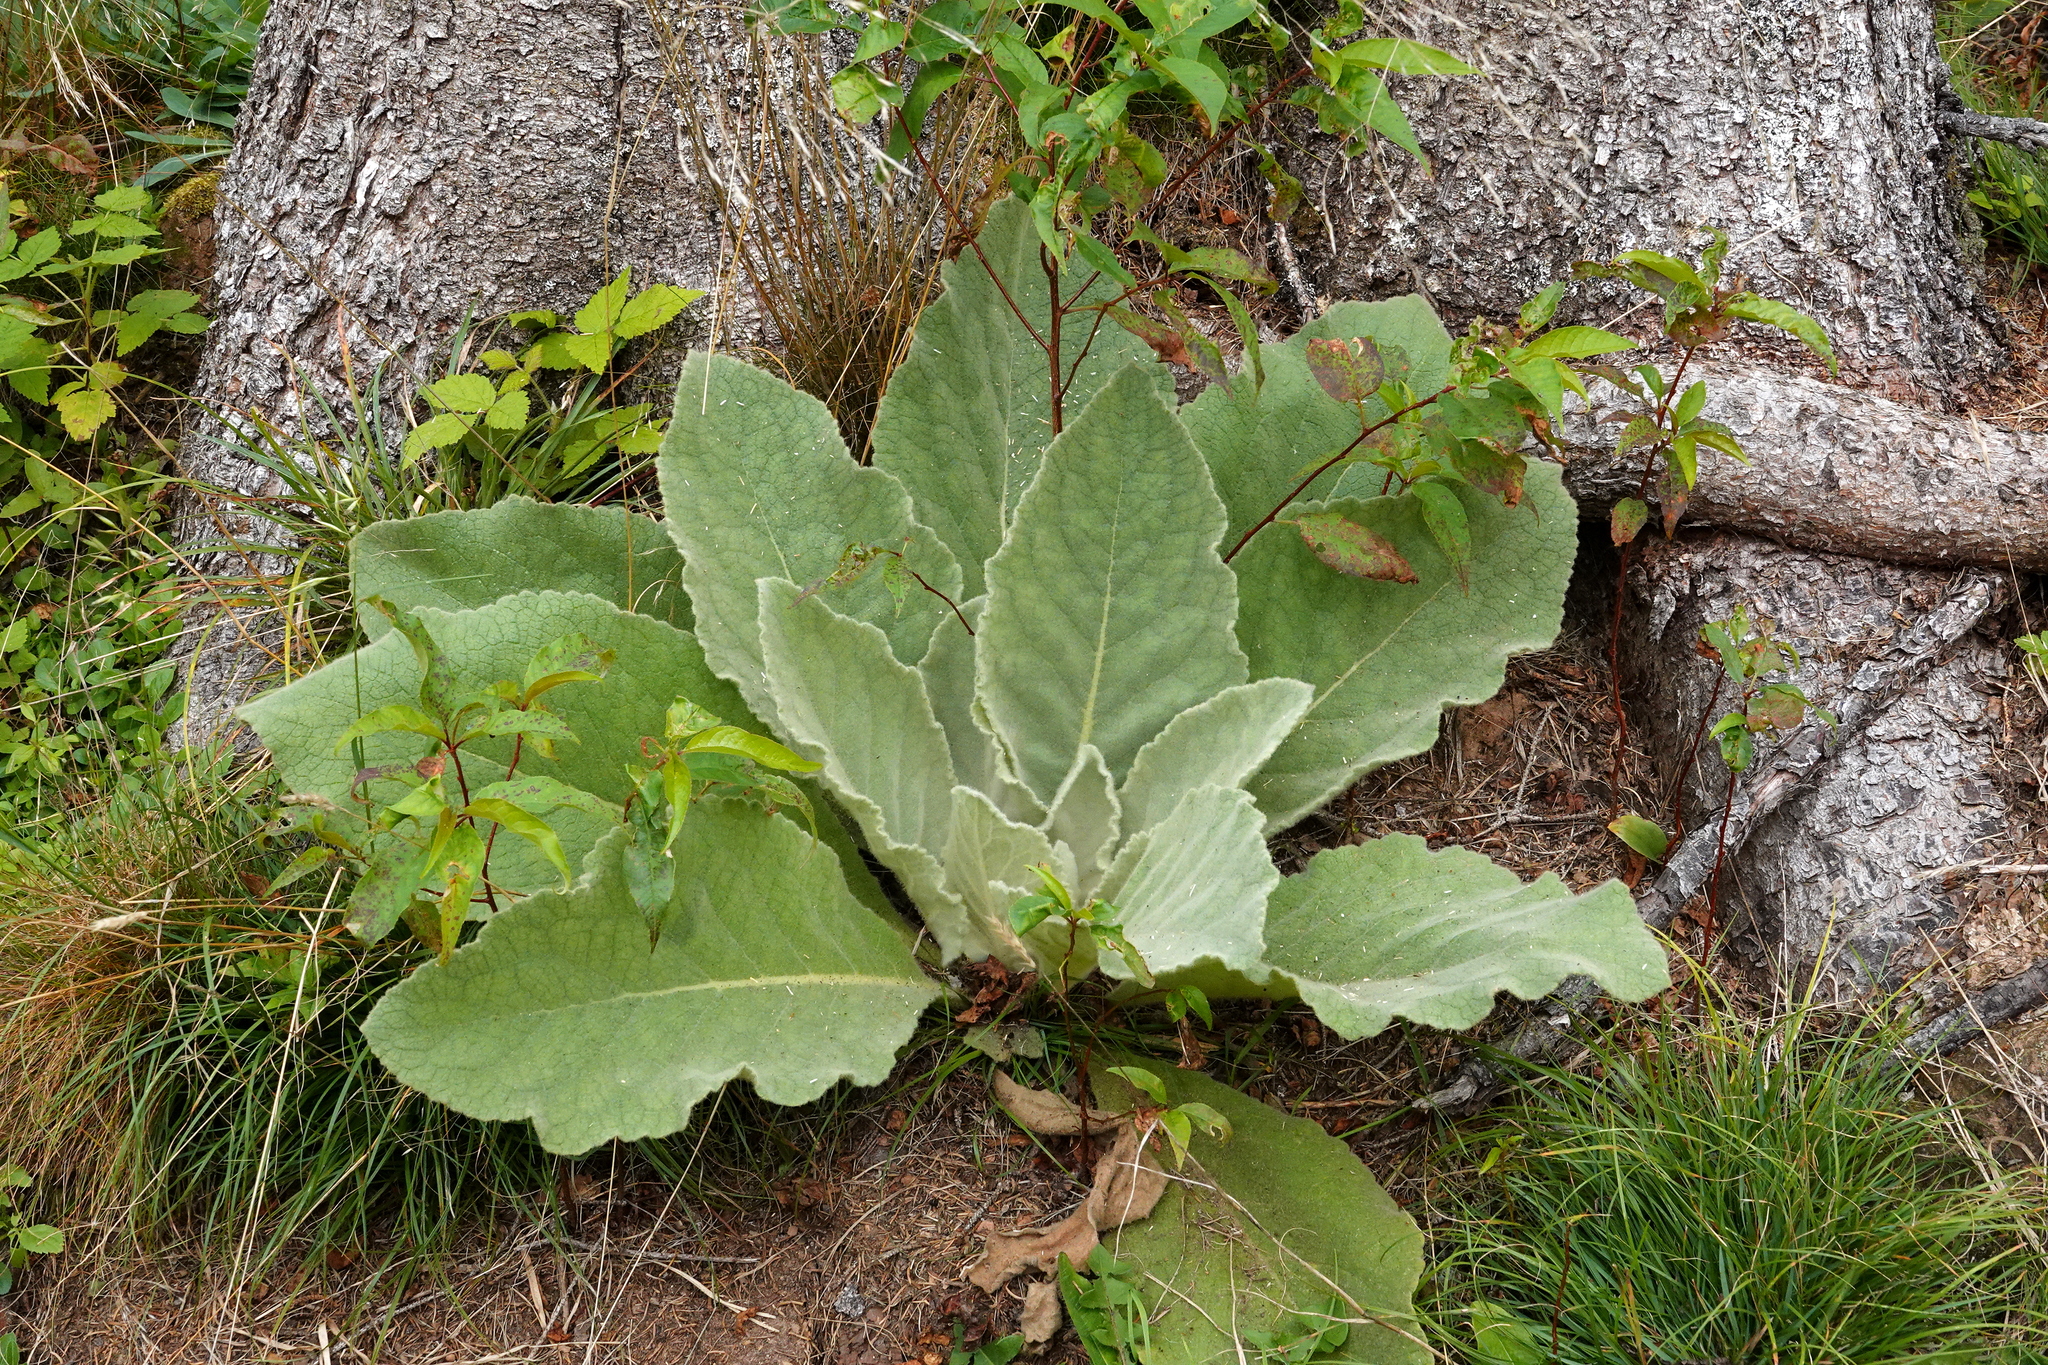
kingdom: Plantae
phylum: Tracheophyta
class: Magnoliopsida
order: Lamiales
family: Scrophulariaceae
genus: Verbascum
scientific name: Verbascum thapsus
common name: Common mullein
